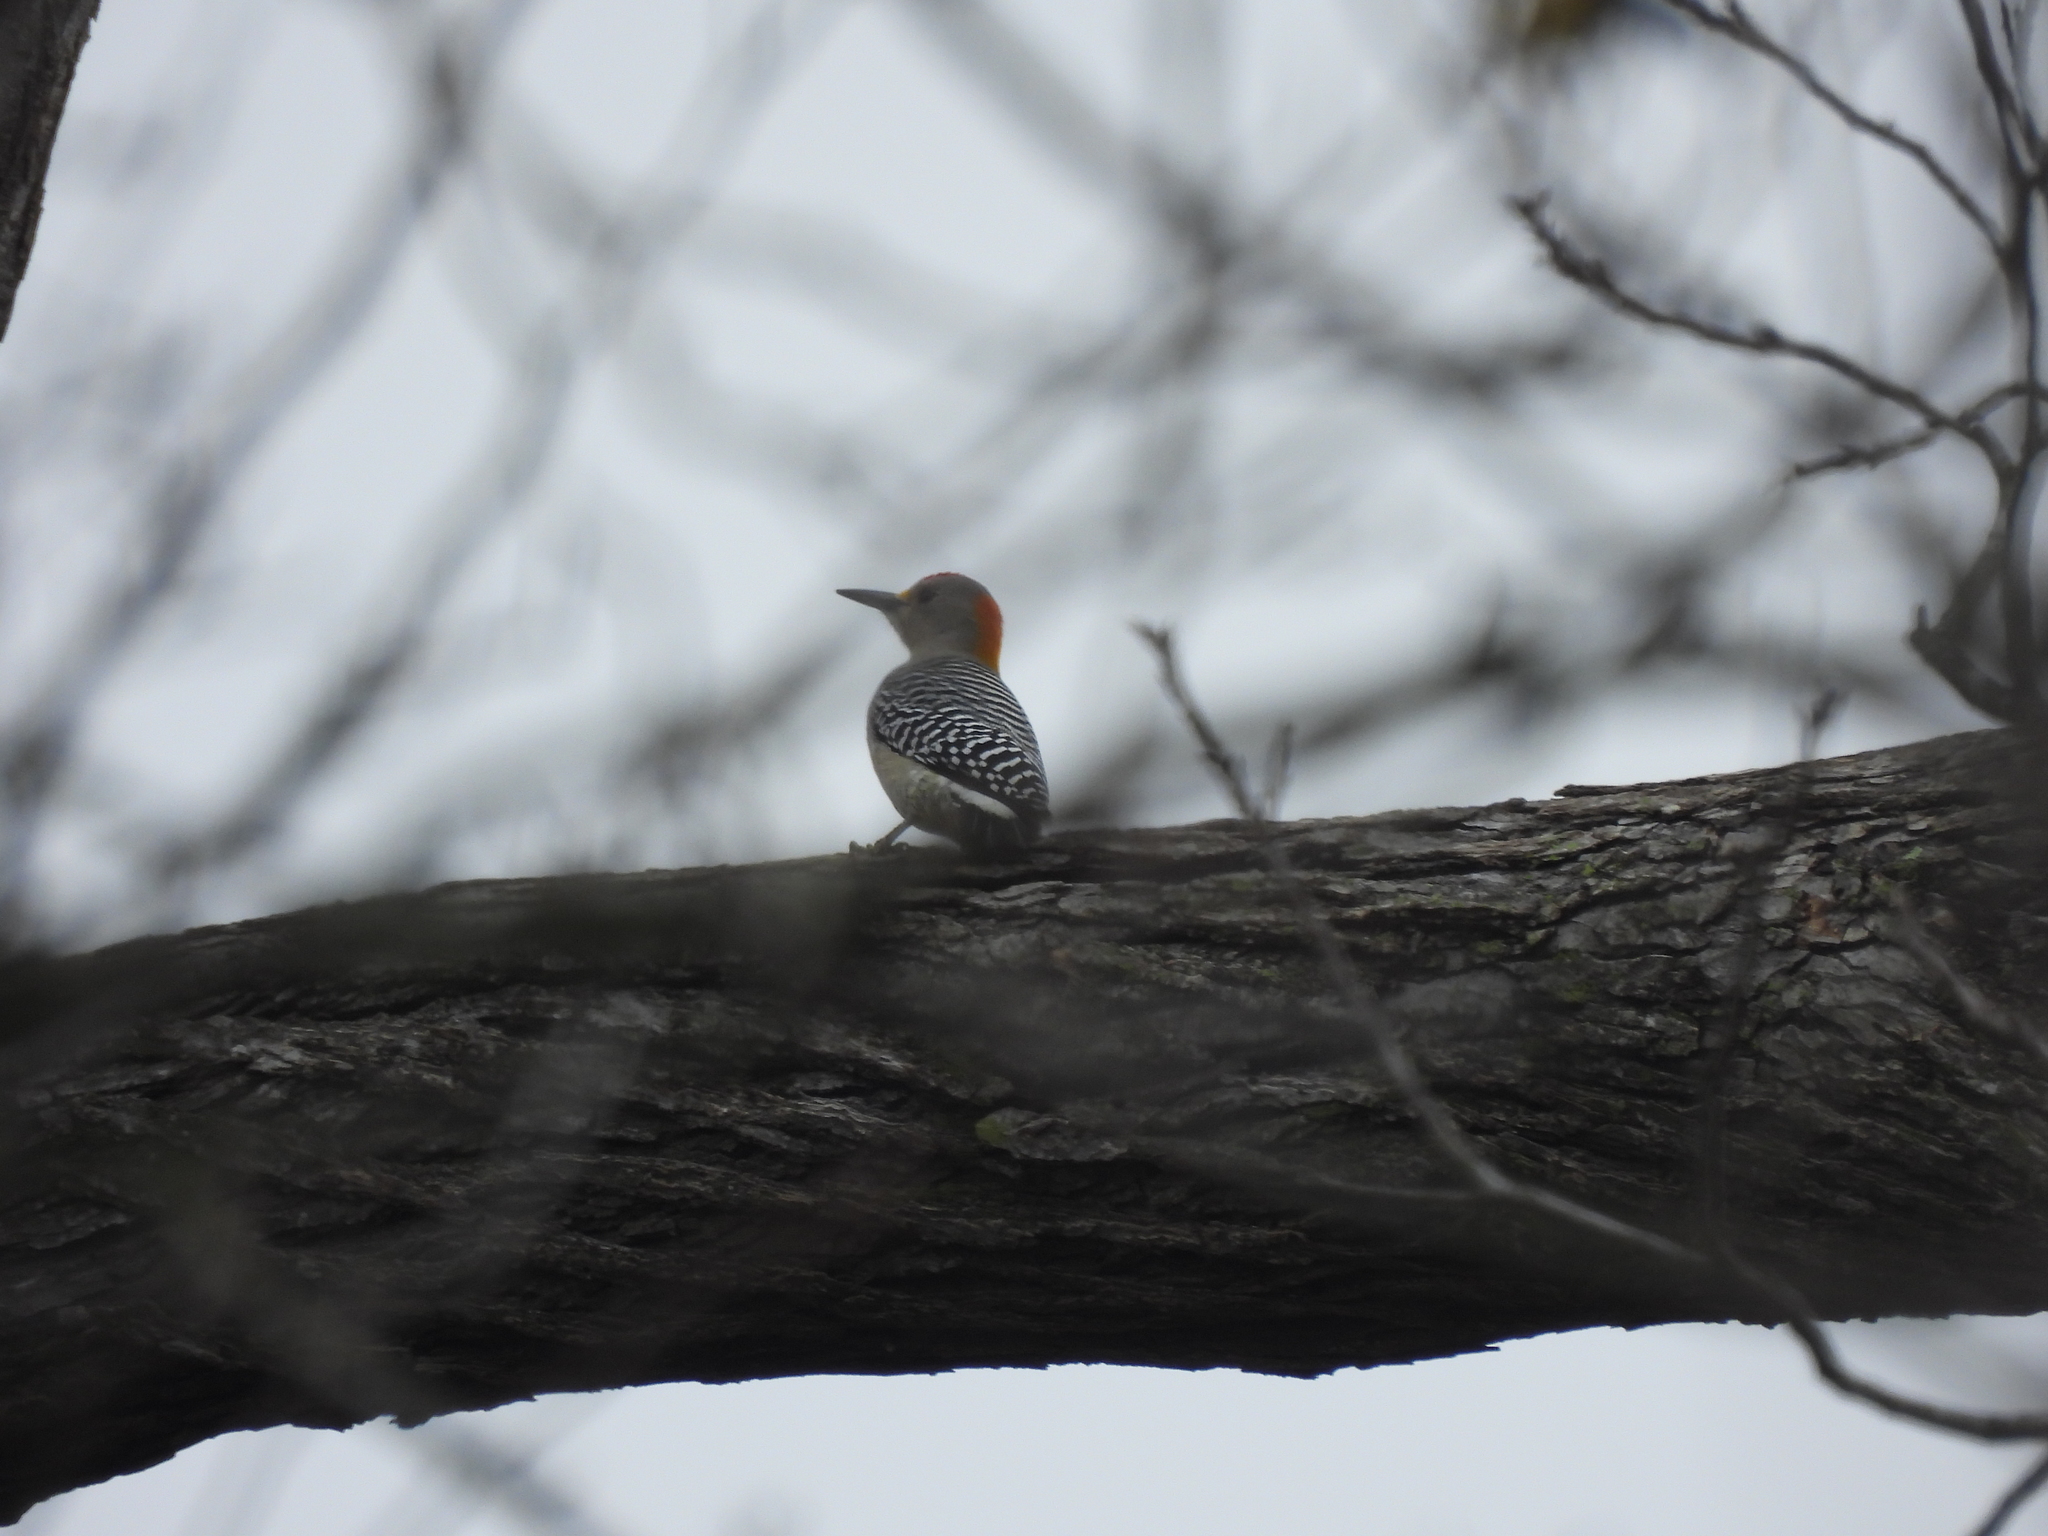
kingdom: Animalia
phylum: Chordata
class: Aves
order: Piciformes
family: Picidae
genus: Melanerpes
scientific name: Melanerpes aurifrons
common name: Golden-fronted woodpecker
